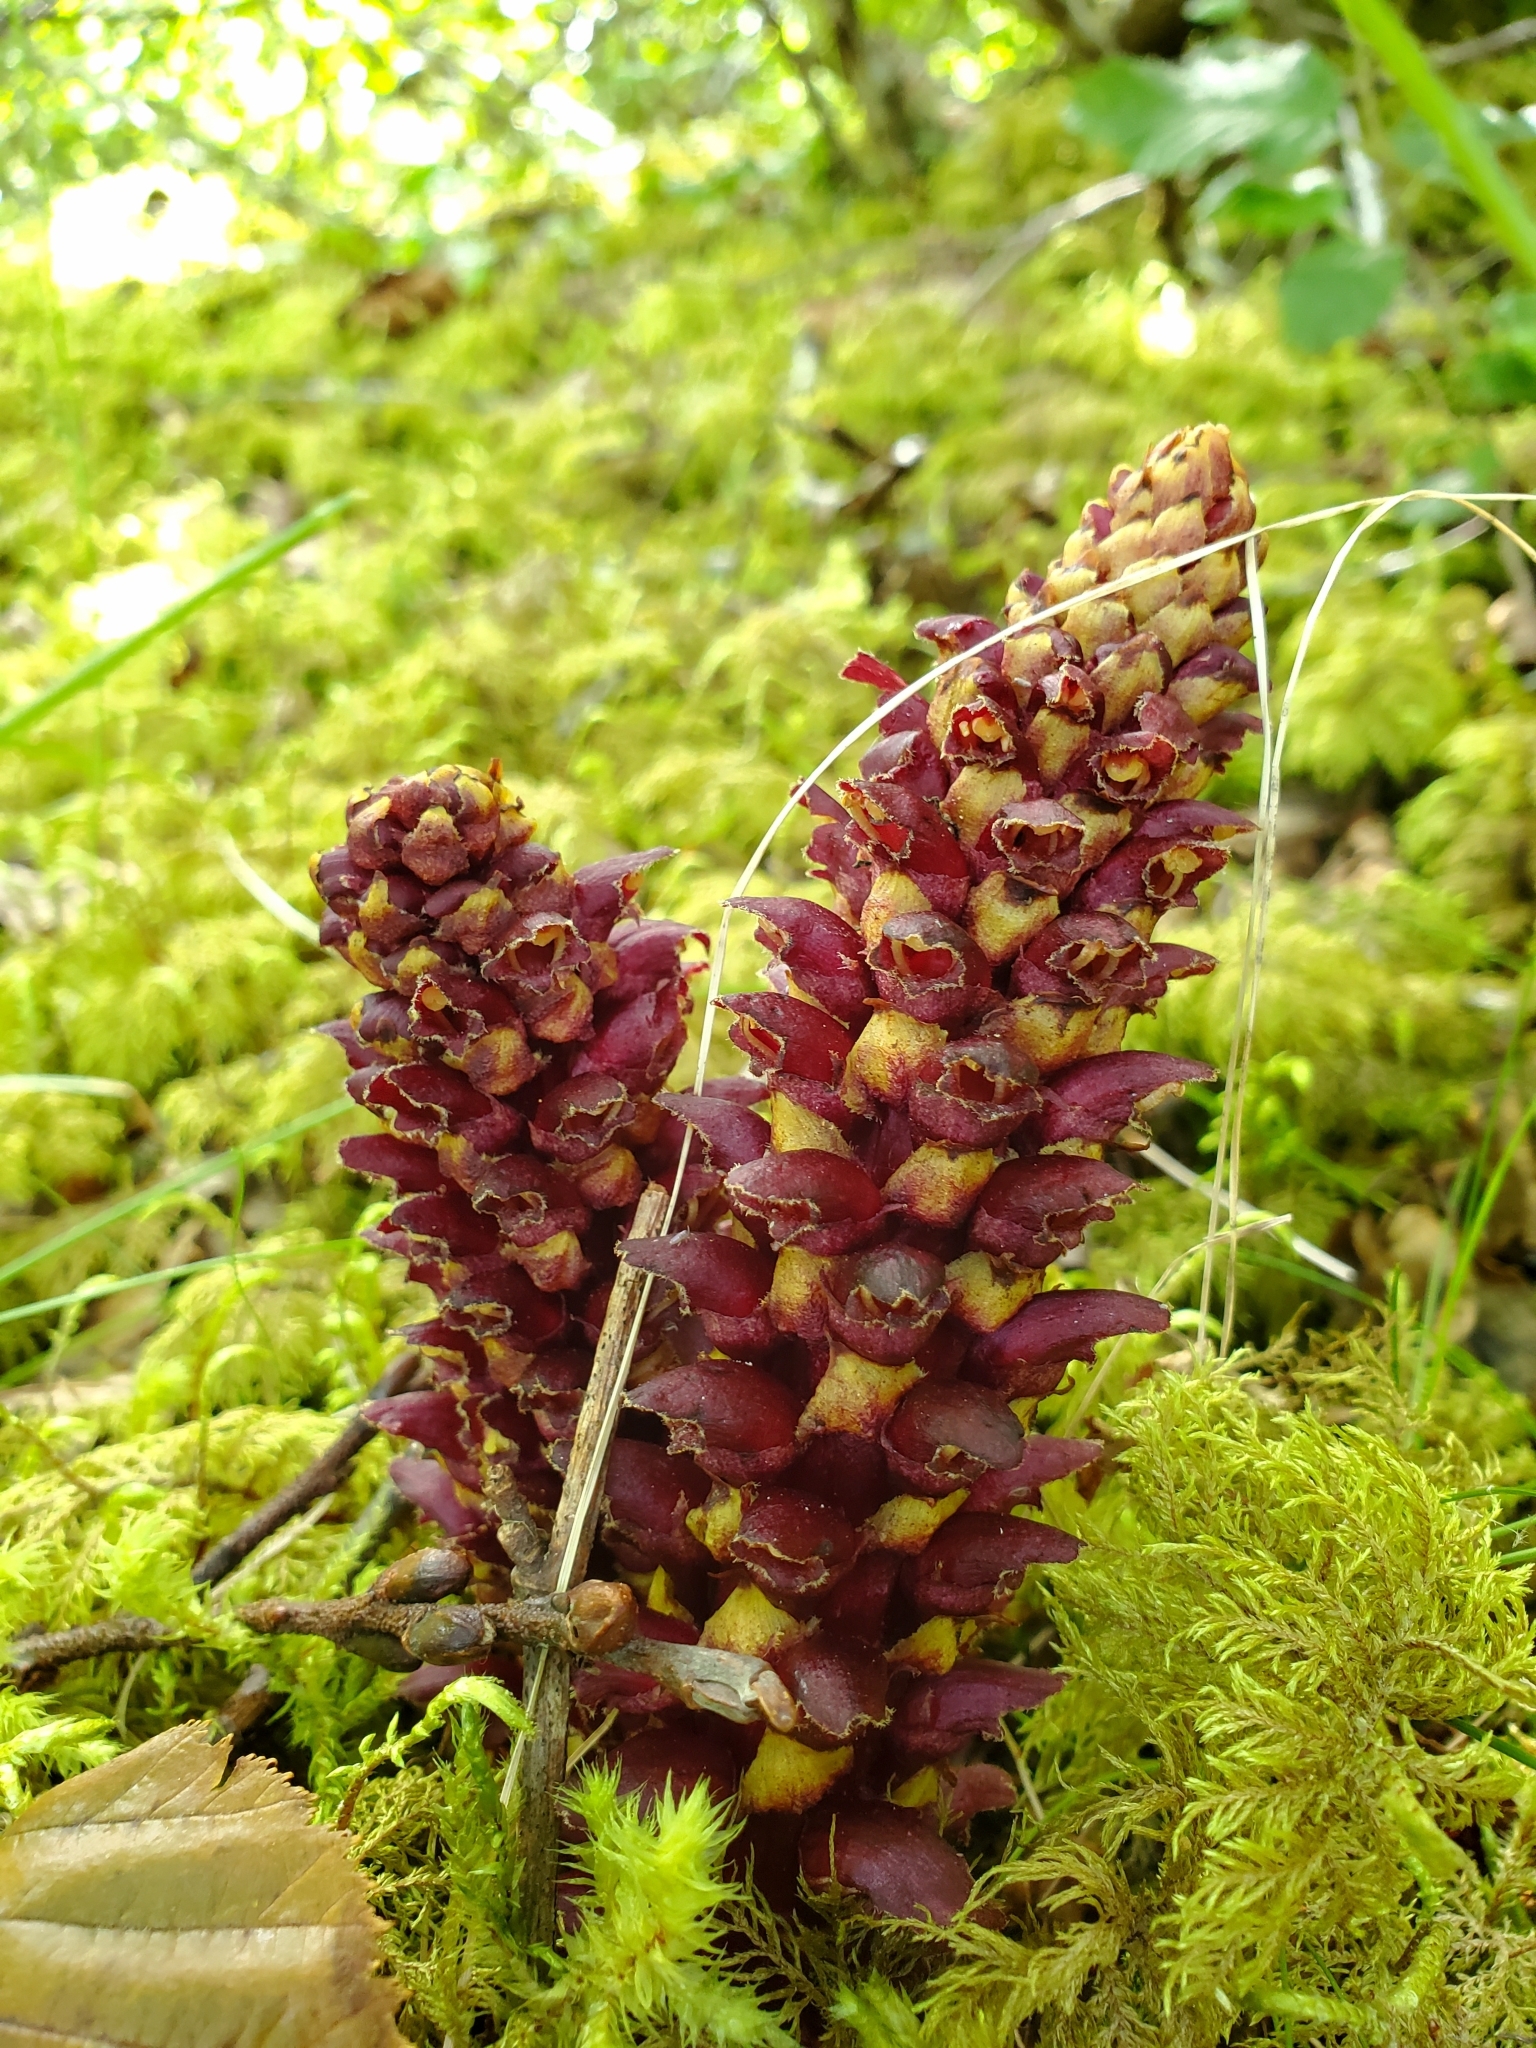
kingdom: Plantae
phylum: Tracheophyta
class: Magnoliopsida
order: Lamiales
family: Orobanchaceae
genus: Boschniakia
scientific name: Boschniakia rossica
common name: Poque
